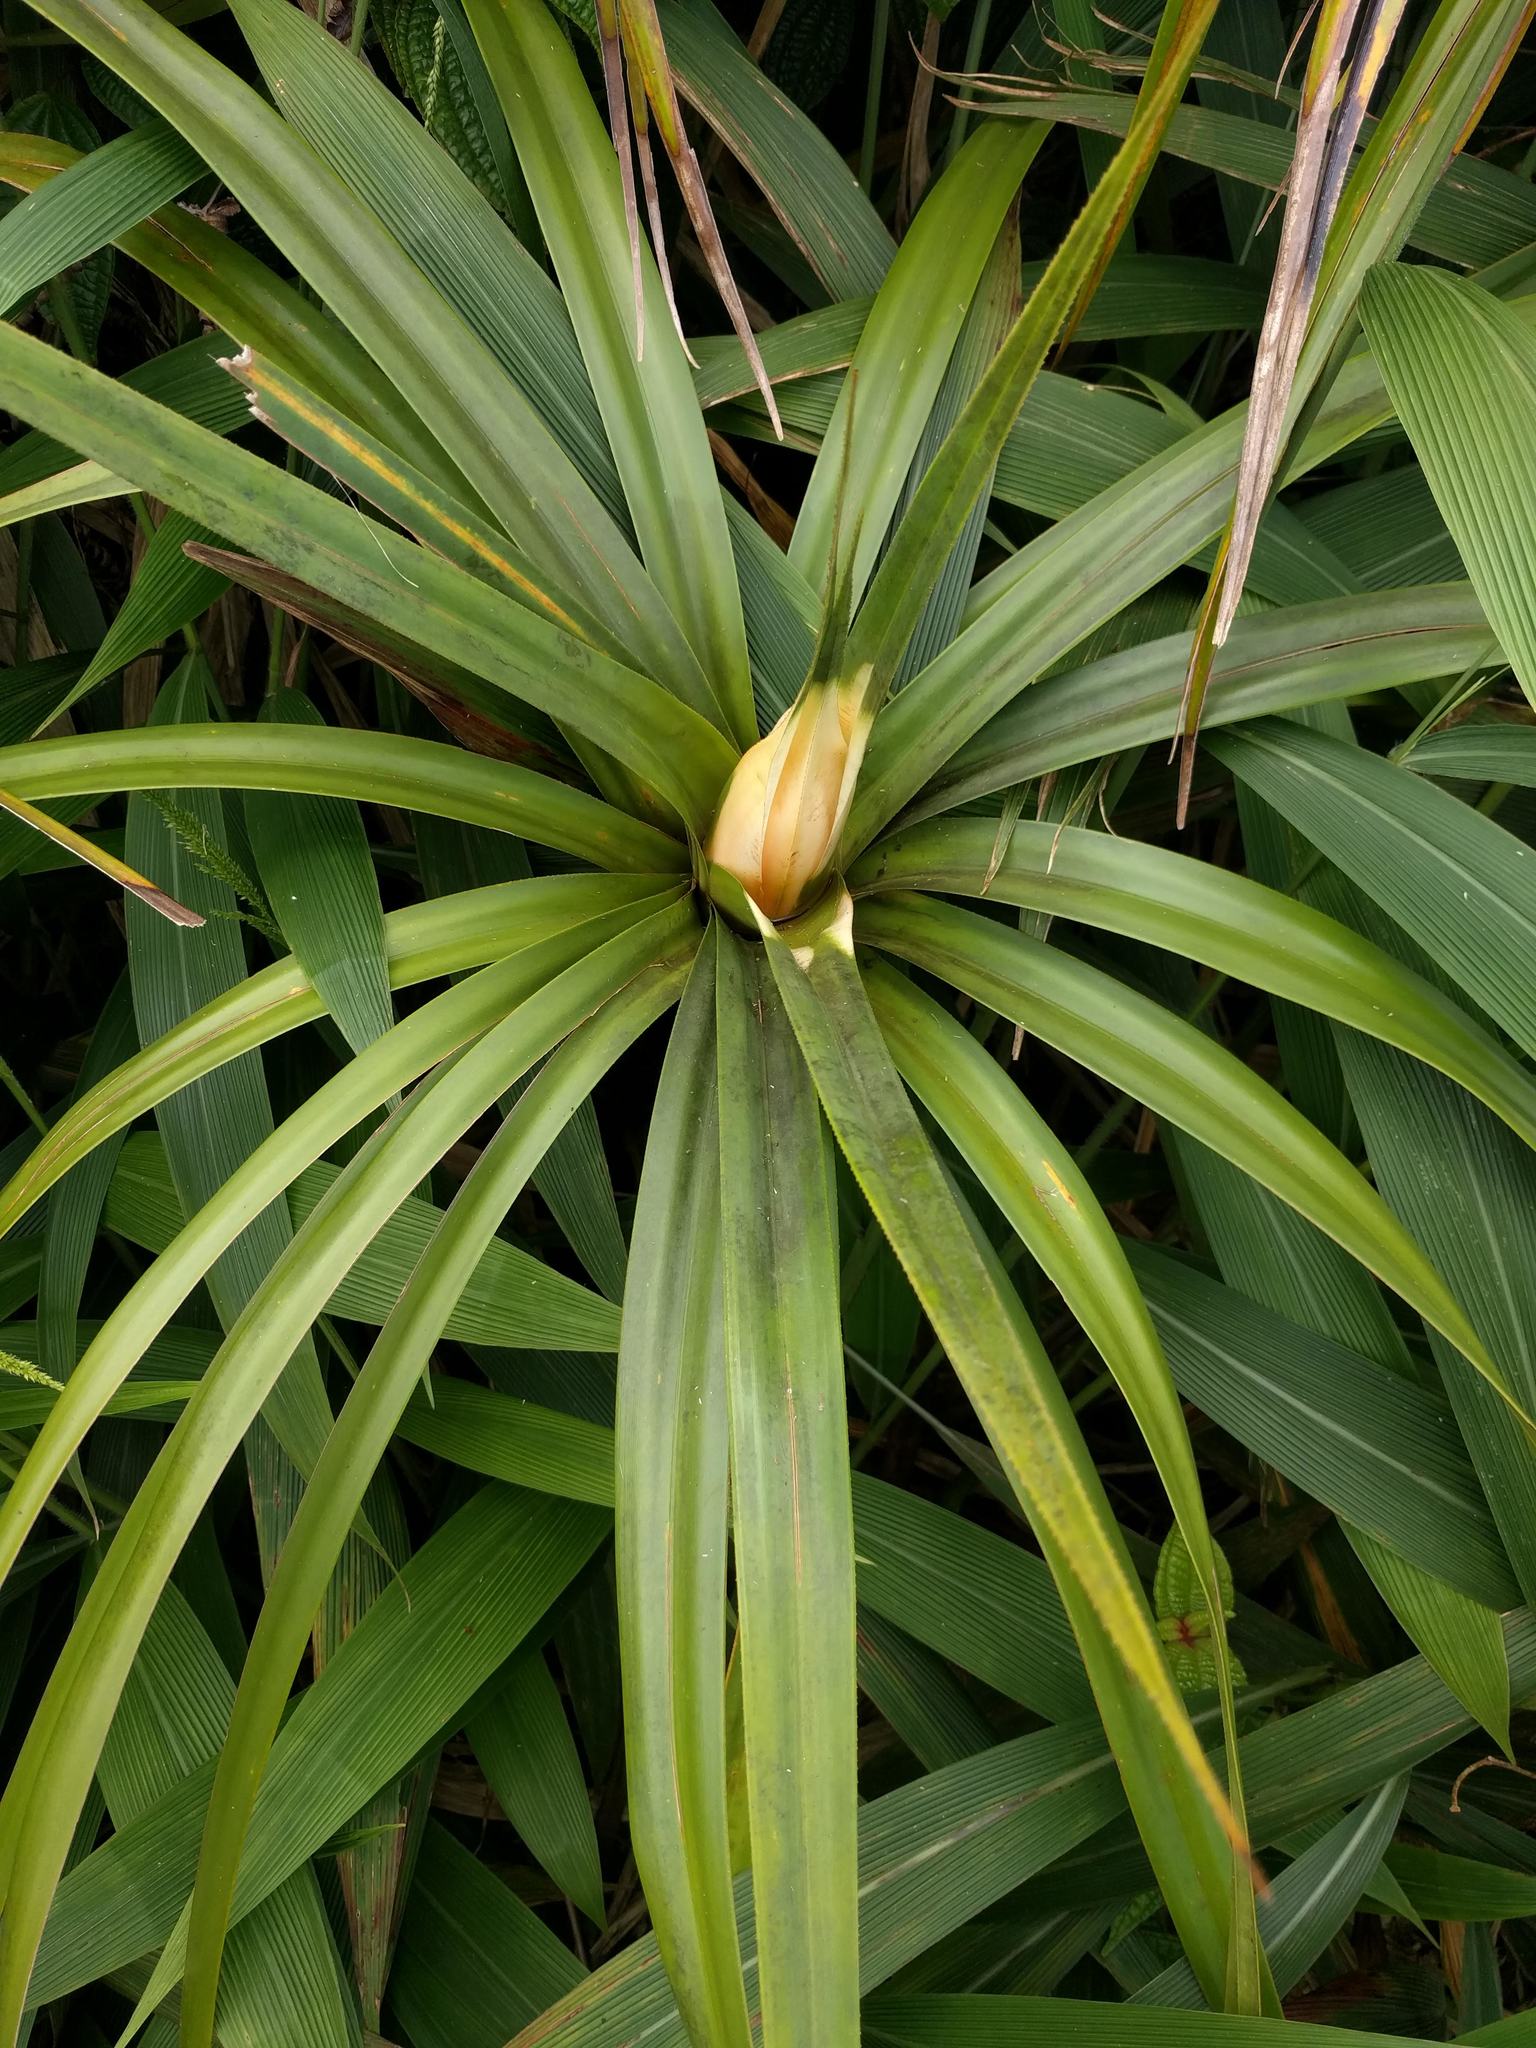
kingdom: Plantae
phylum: Tracheophyta
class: Liliopsida
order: Pandanales
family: Pandanaceae
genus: Freycinetia
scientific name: Freycinetia arborea
